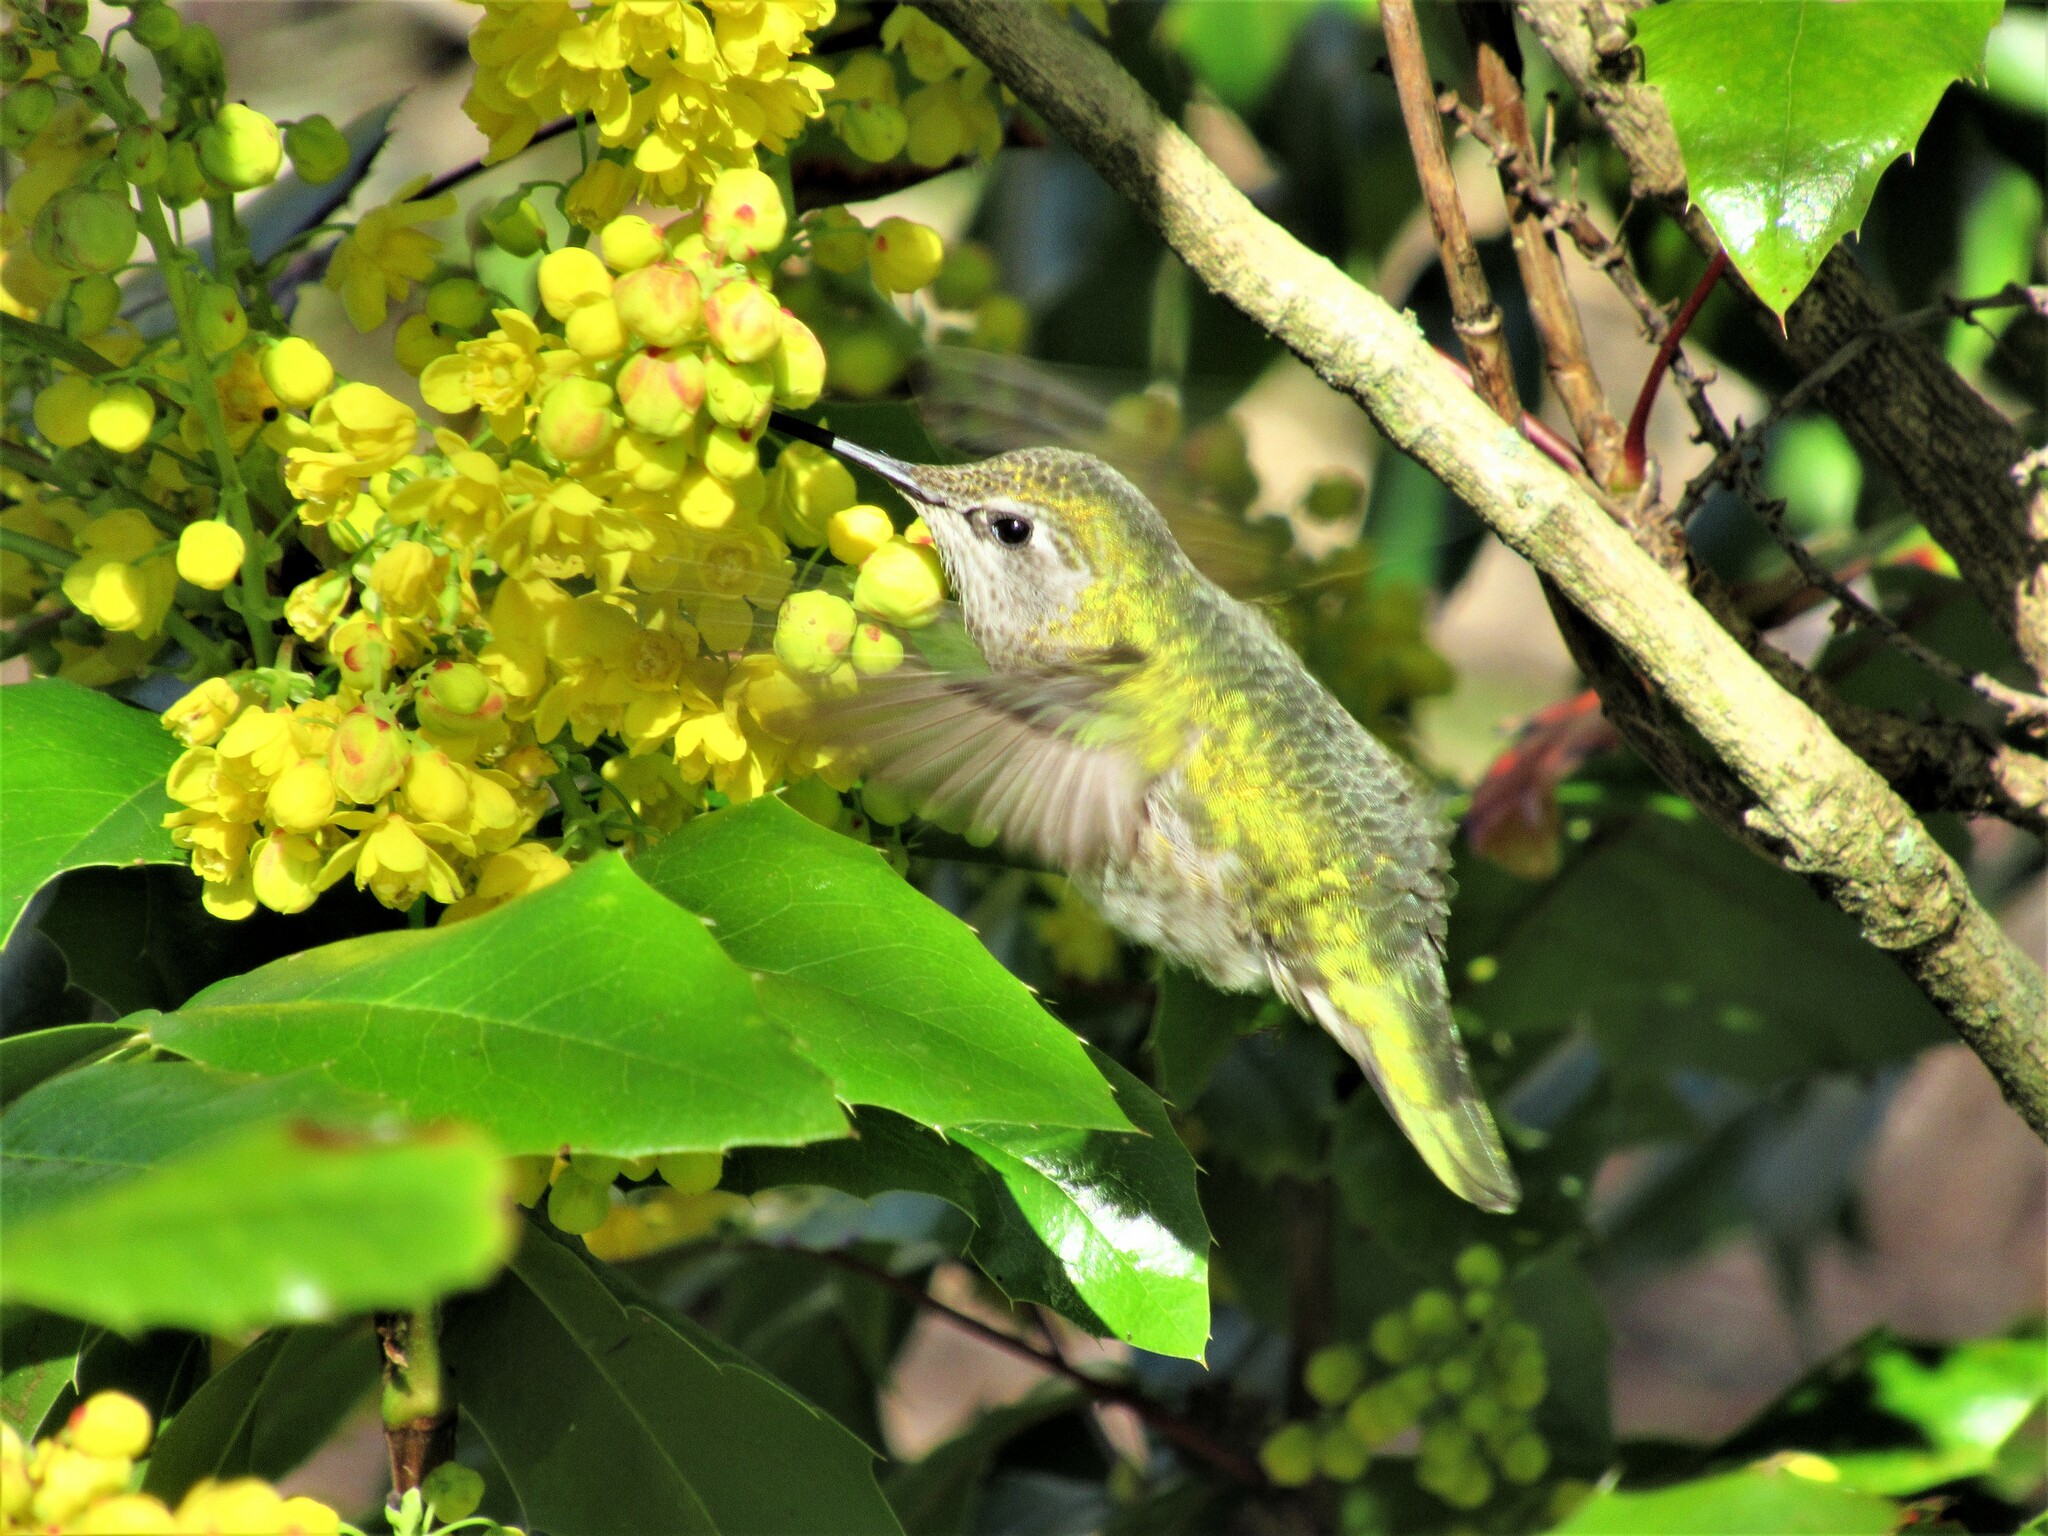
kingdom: Animalia
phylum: Chordata
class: Aves
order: Apodiformes
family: Trochilidae
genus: Calypte
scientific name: Calypte anna
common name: Anna's hummingbird
